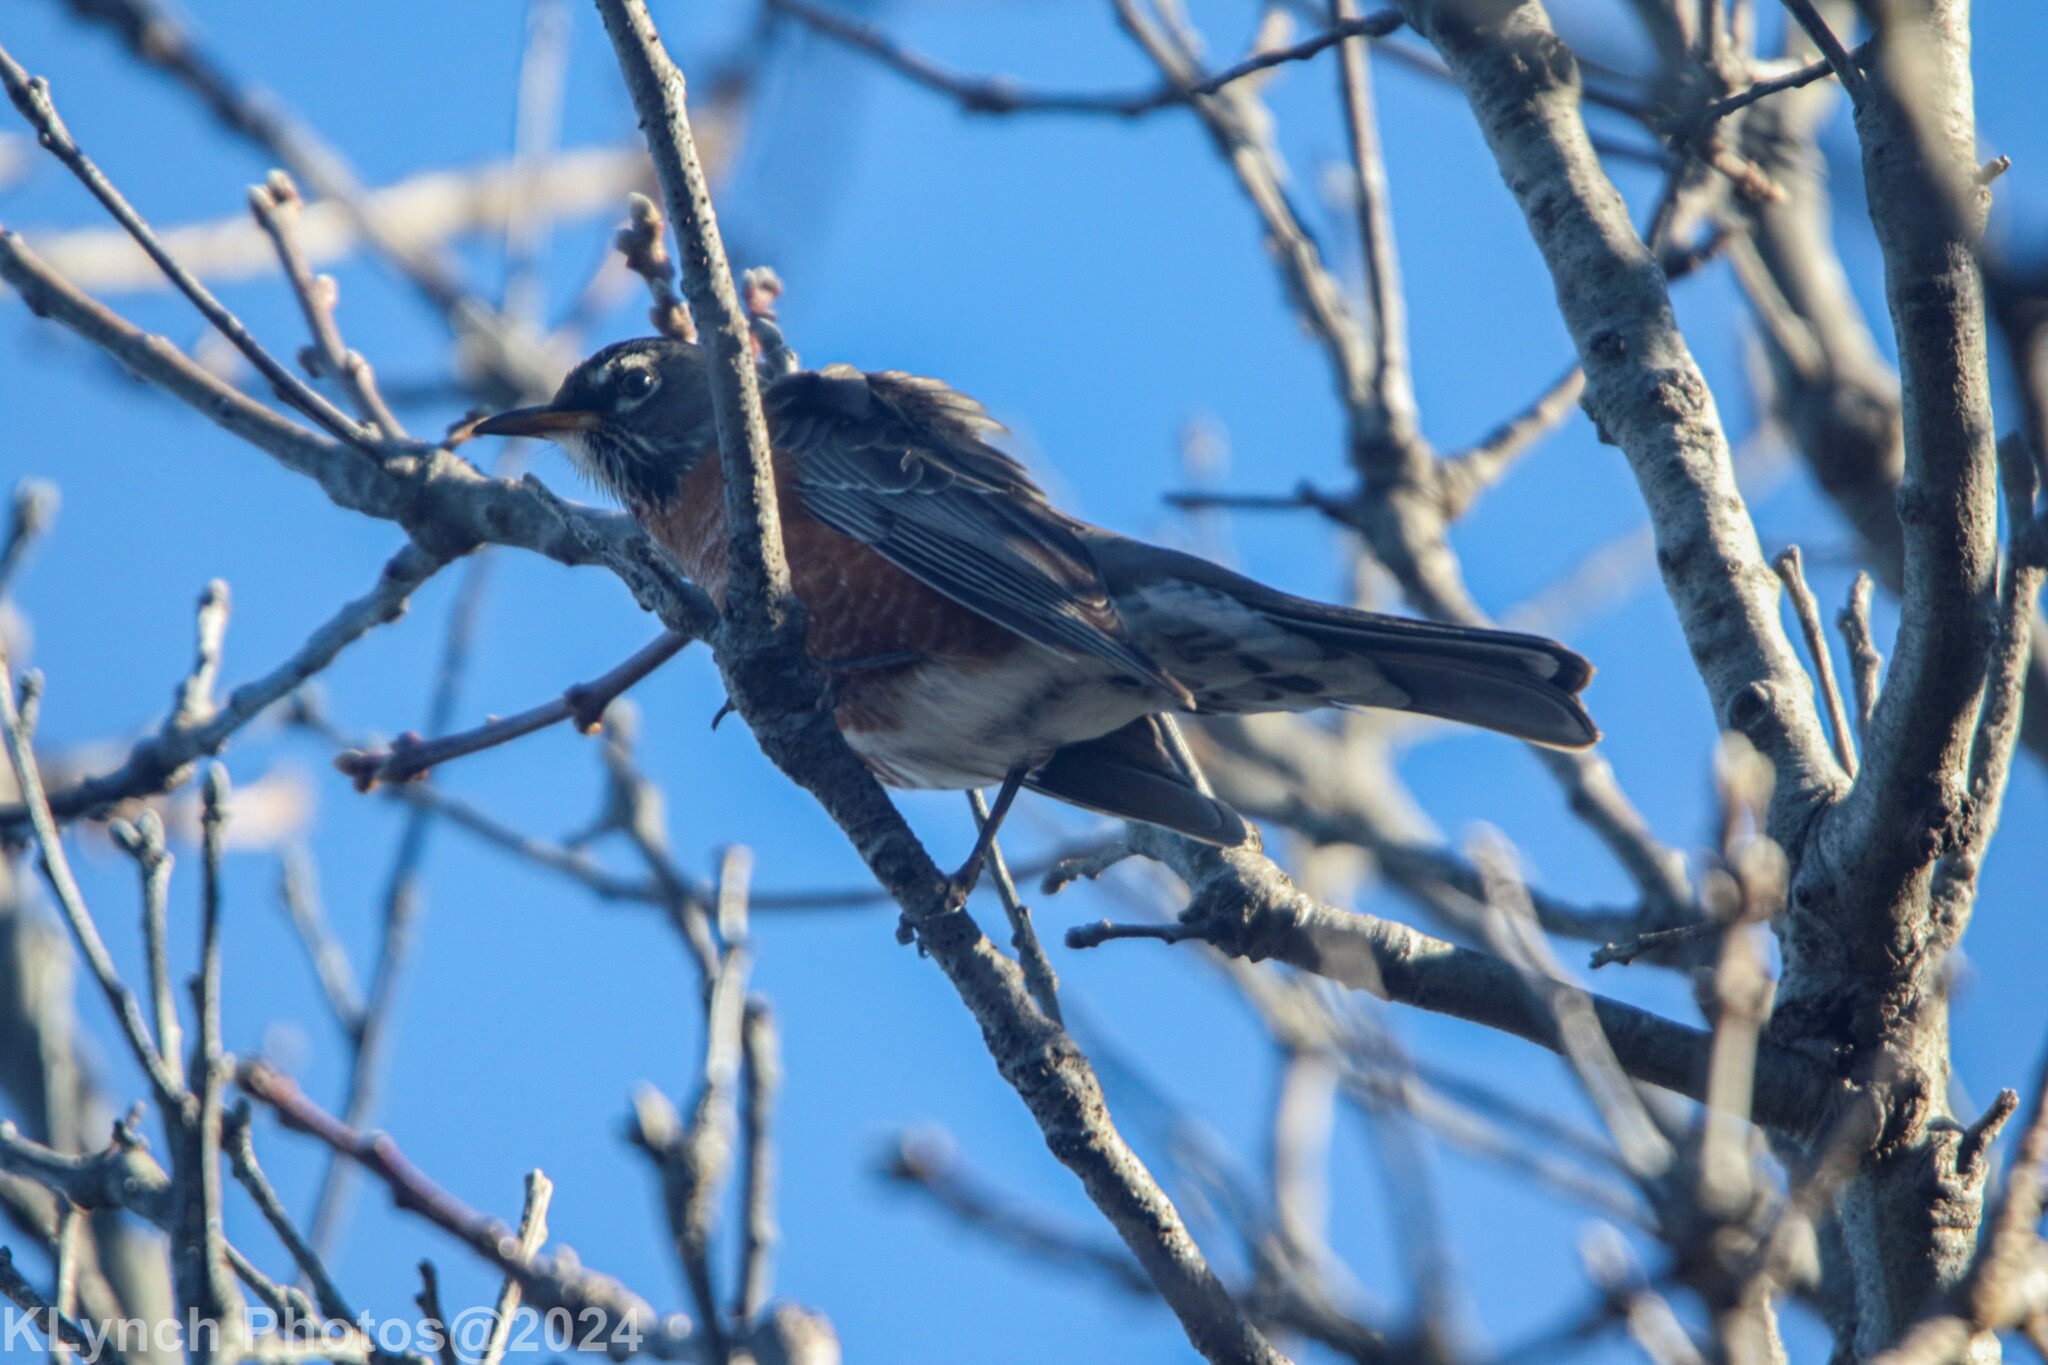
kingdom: Animalia
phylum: Chordata
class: Aves
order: Passeriformes
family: Turdidae
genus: Turdus
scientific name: Turdus migratorius
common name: American robin
